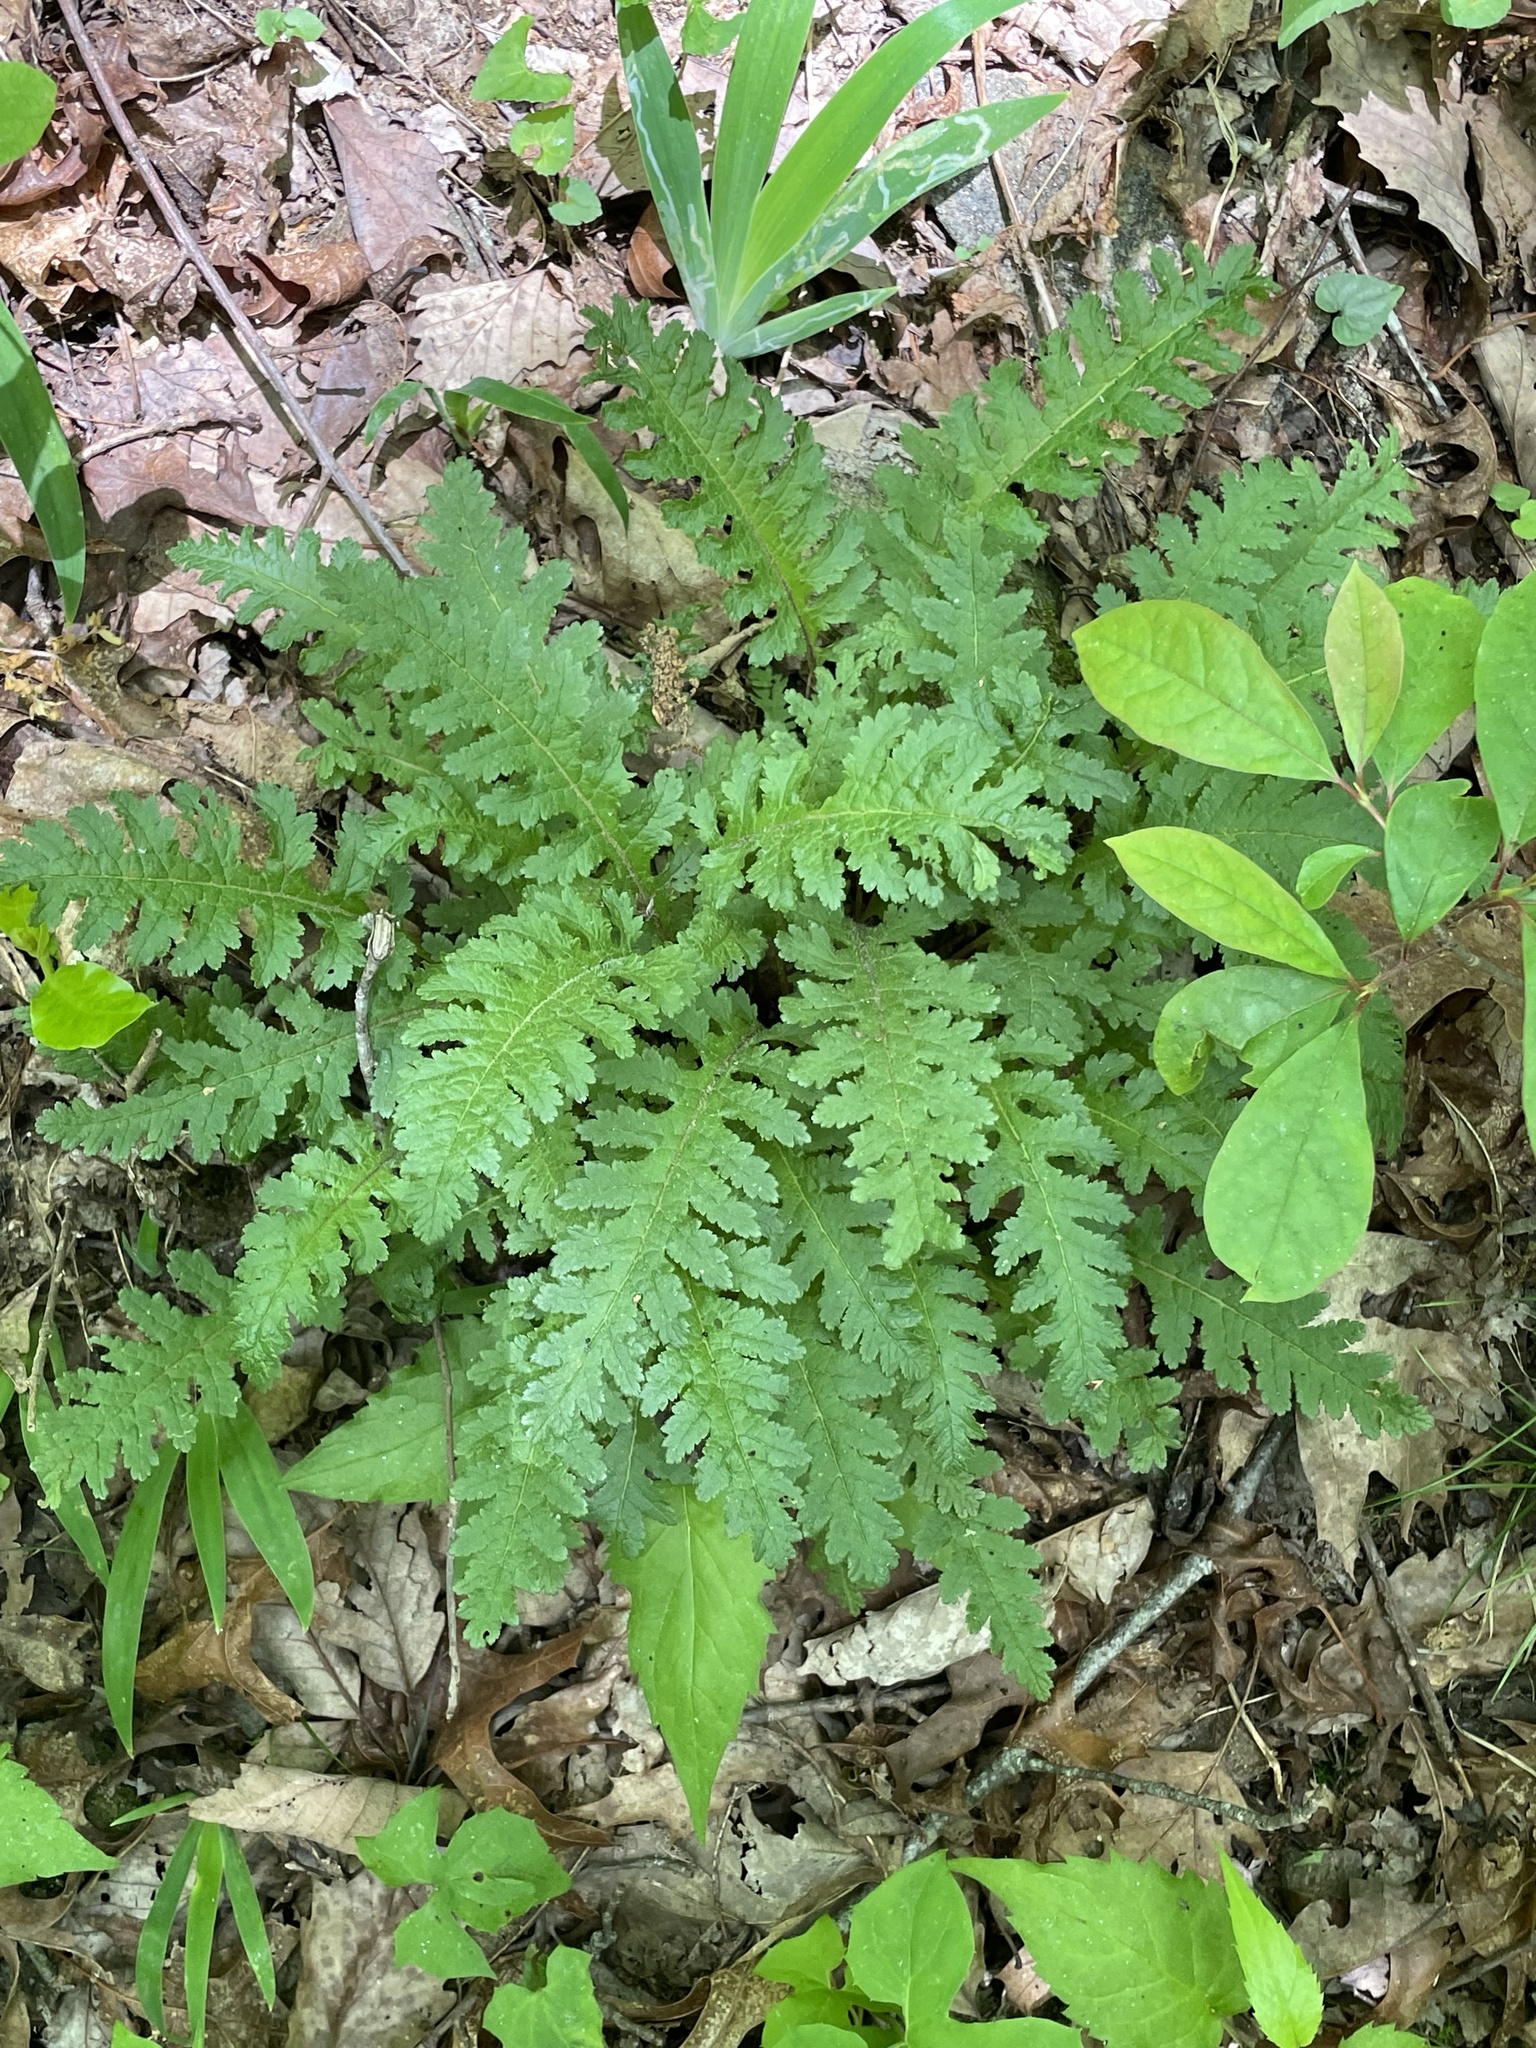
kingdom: Plantae
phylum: Tracheophyta
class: Magnoliopsida
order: Lamiales
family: Orobanchaceae
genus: Pedicularis
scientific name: Pedicularis canadensis
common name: Early lousewort
